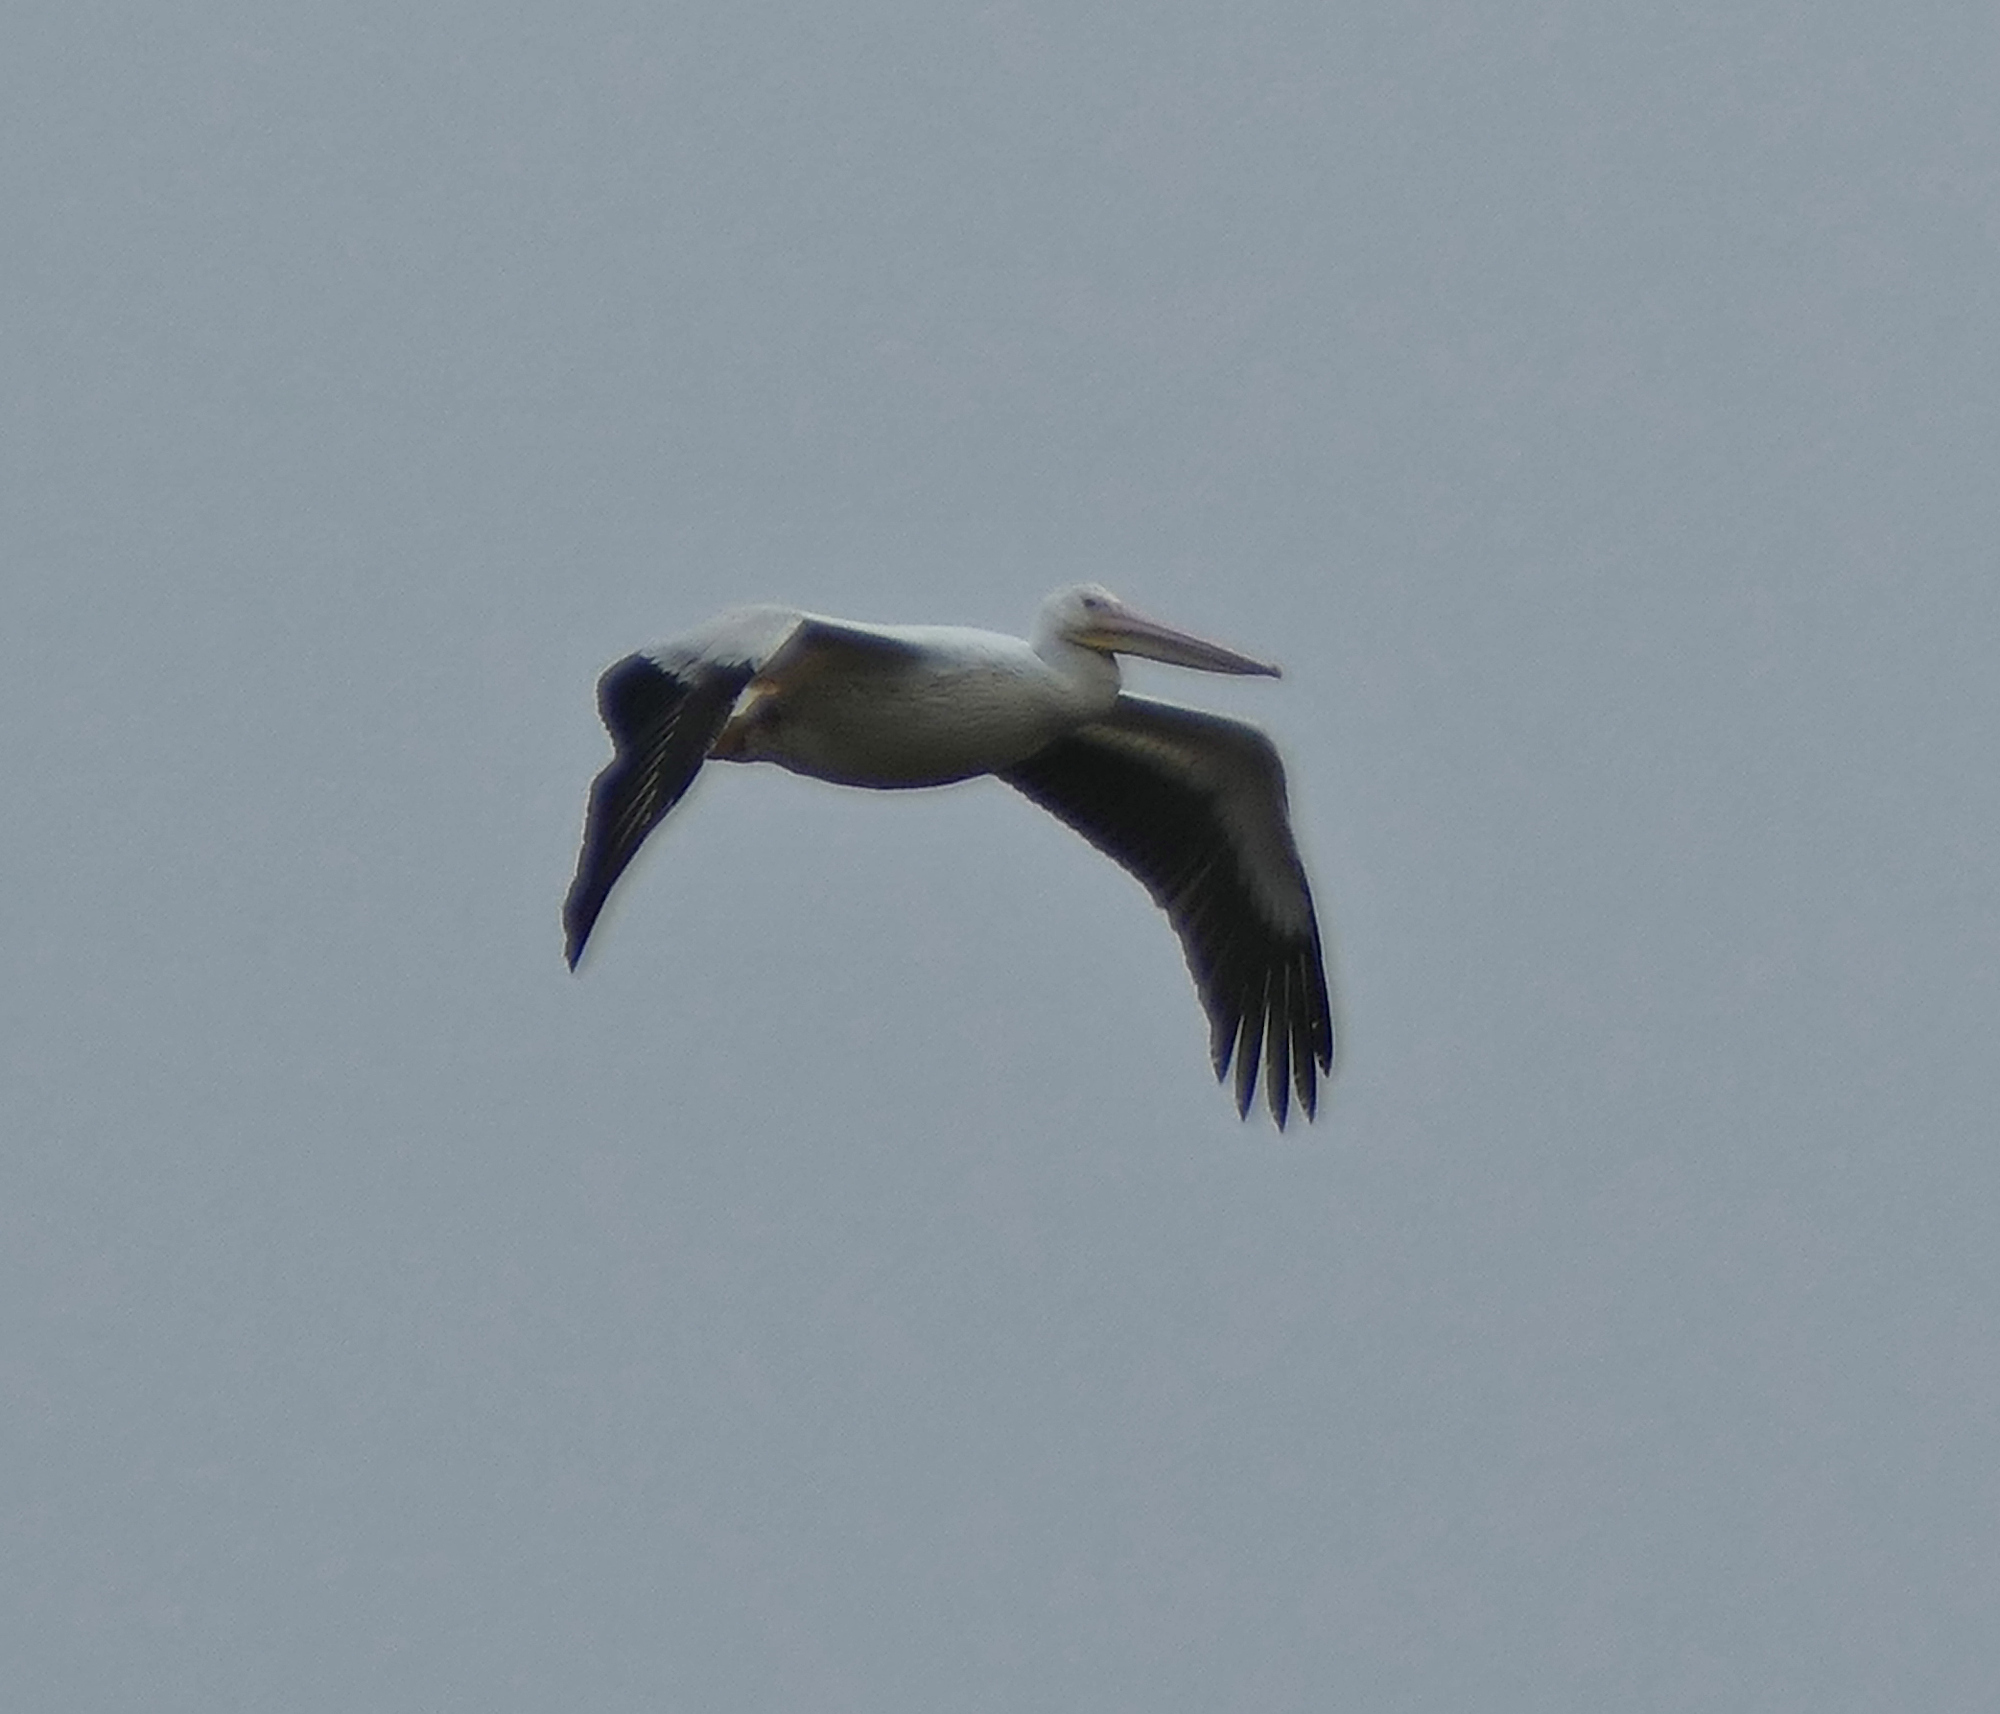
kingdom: Animalia
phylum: Chordata
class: Aves
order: Pelecaniformes
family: Pelecanidae
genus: Pelecanus
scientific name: Pelecanus erythrorhynchos
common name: American white pelican
